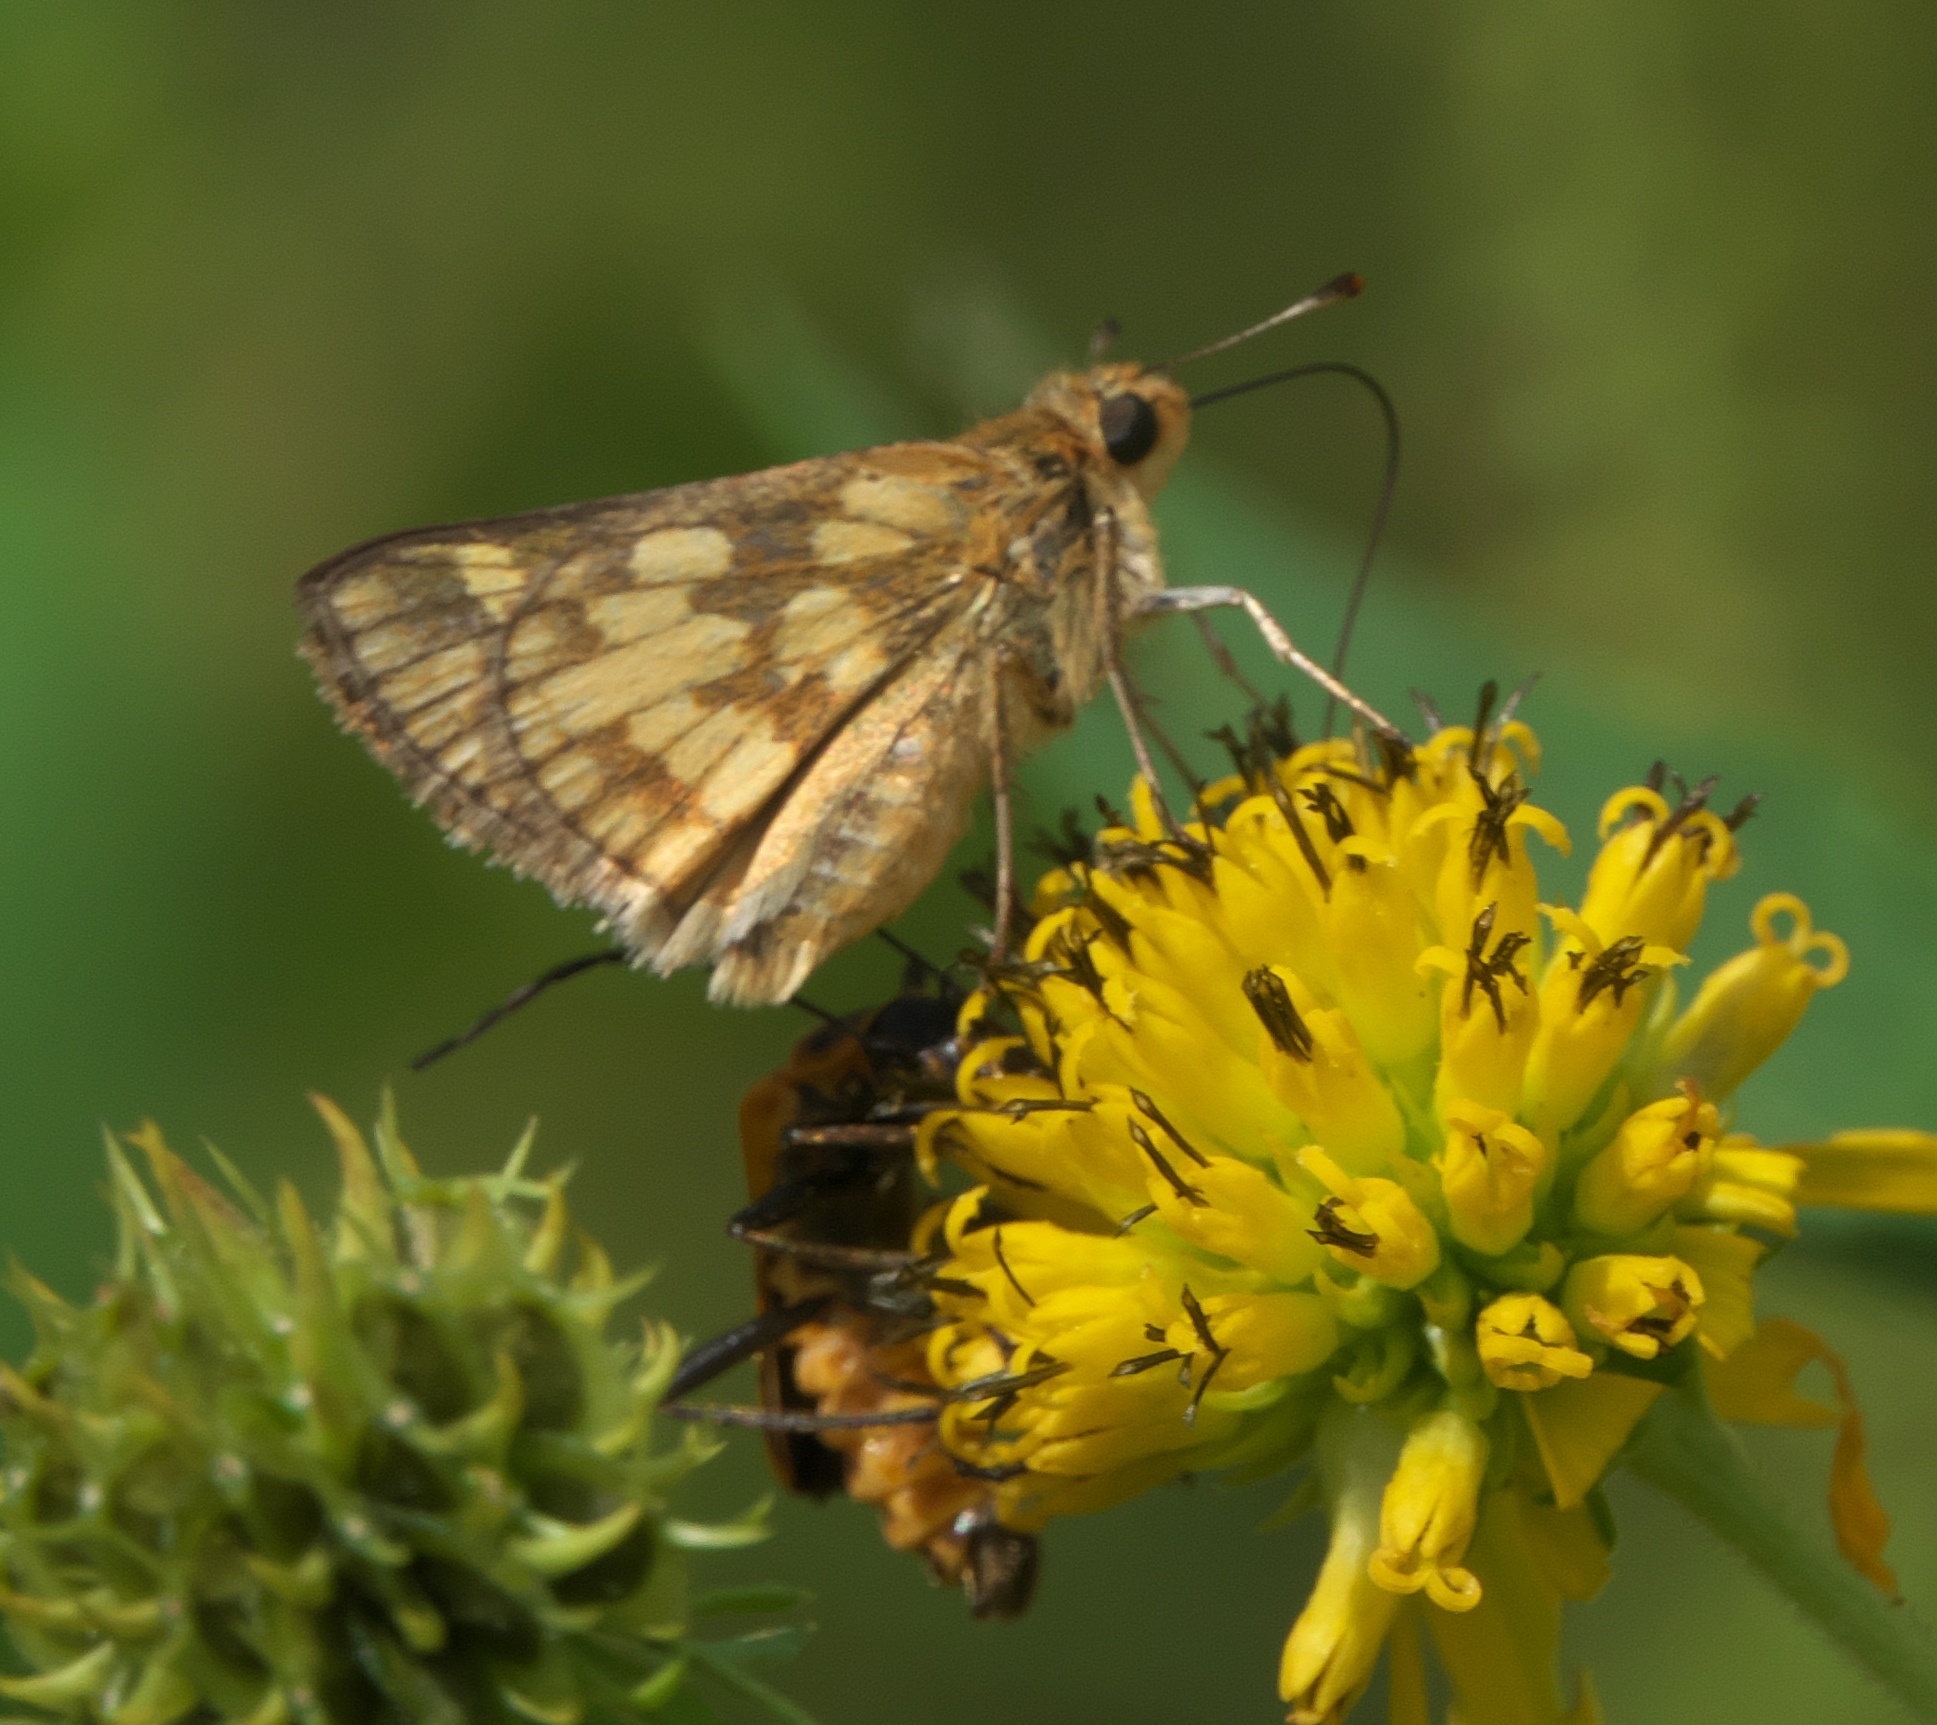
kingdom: Animalia
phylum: Arthropoda
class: Insecta
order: Lepidoptera
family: Hesperiidae
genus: Polites
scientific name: Polites coras
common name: Peck's skipper
